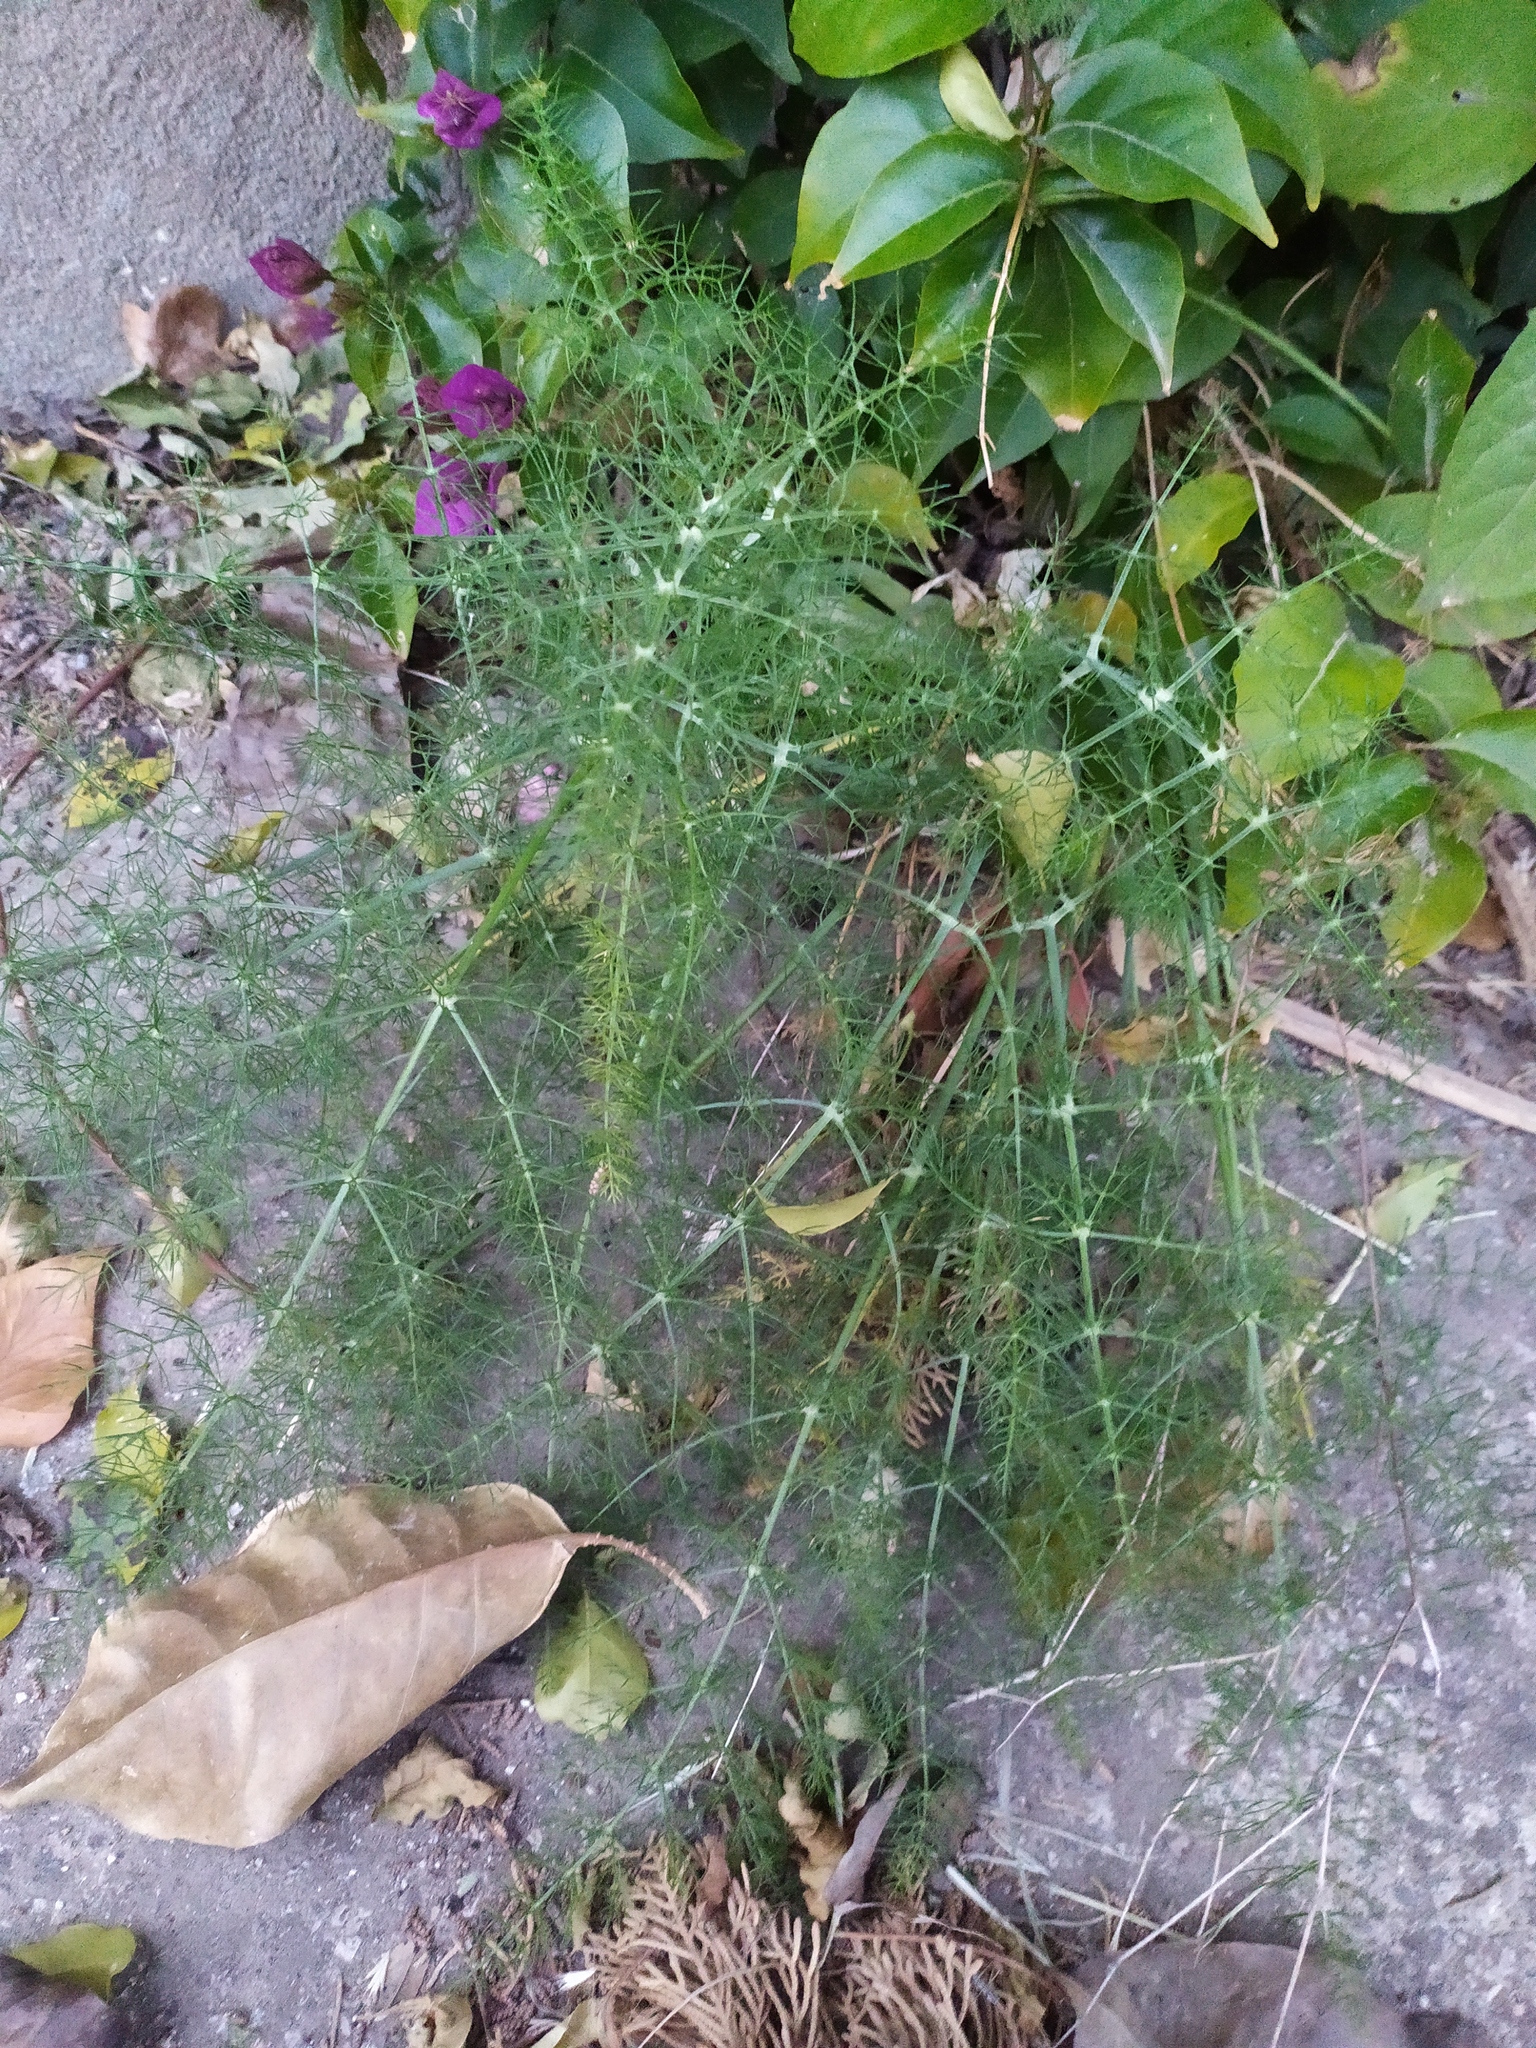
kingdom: Plantae
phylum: Tracheophyta
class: Magnoliopsida
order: Apiales
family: Apiaceae
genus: Foeniculum
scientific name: Foeniculum vulgare
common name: Fennel
